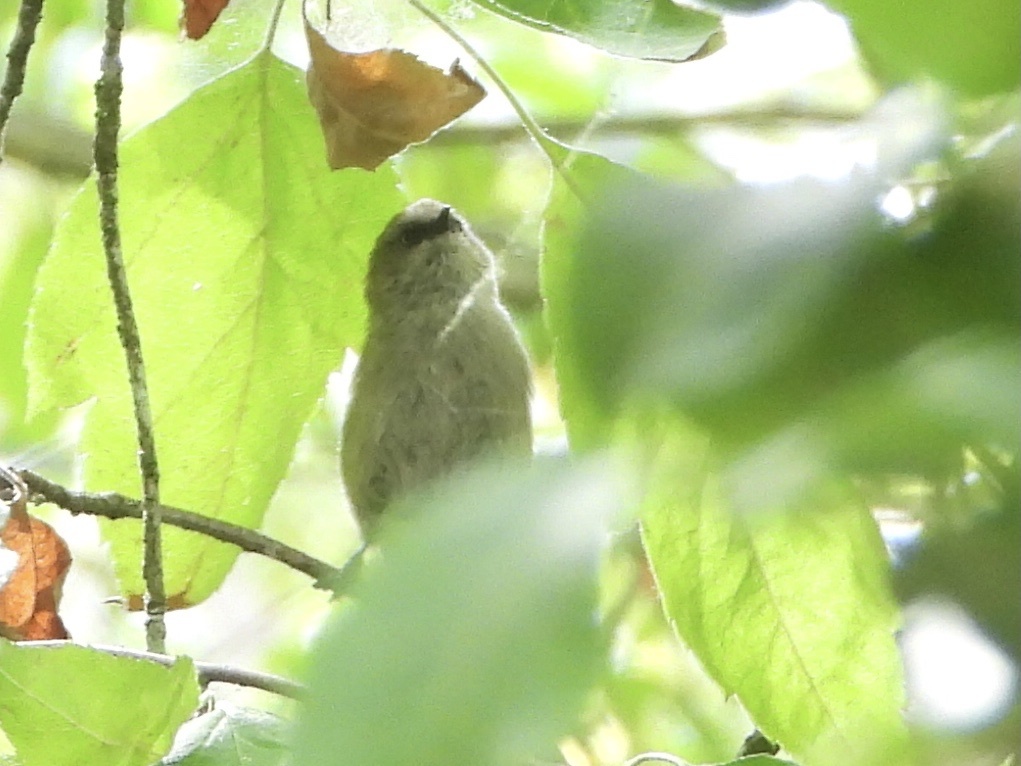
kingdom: Animalia
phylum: Chordata
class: Aves
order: Passeriformes
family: Aegithalidae
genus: Psaltriparus
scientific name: Psaltriparus minimus
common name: American bushtit
